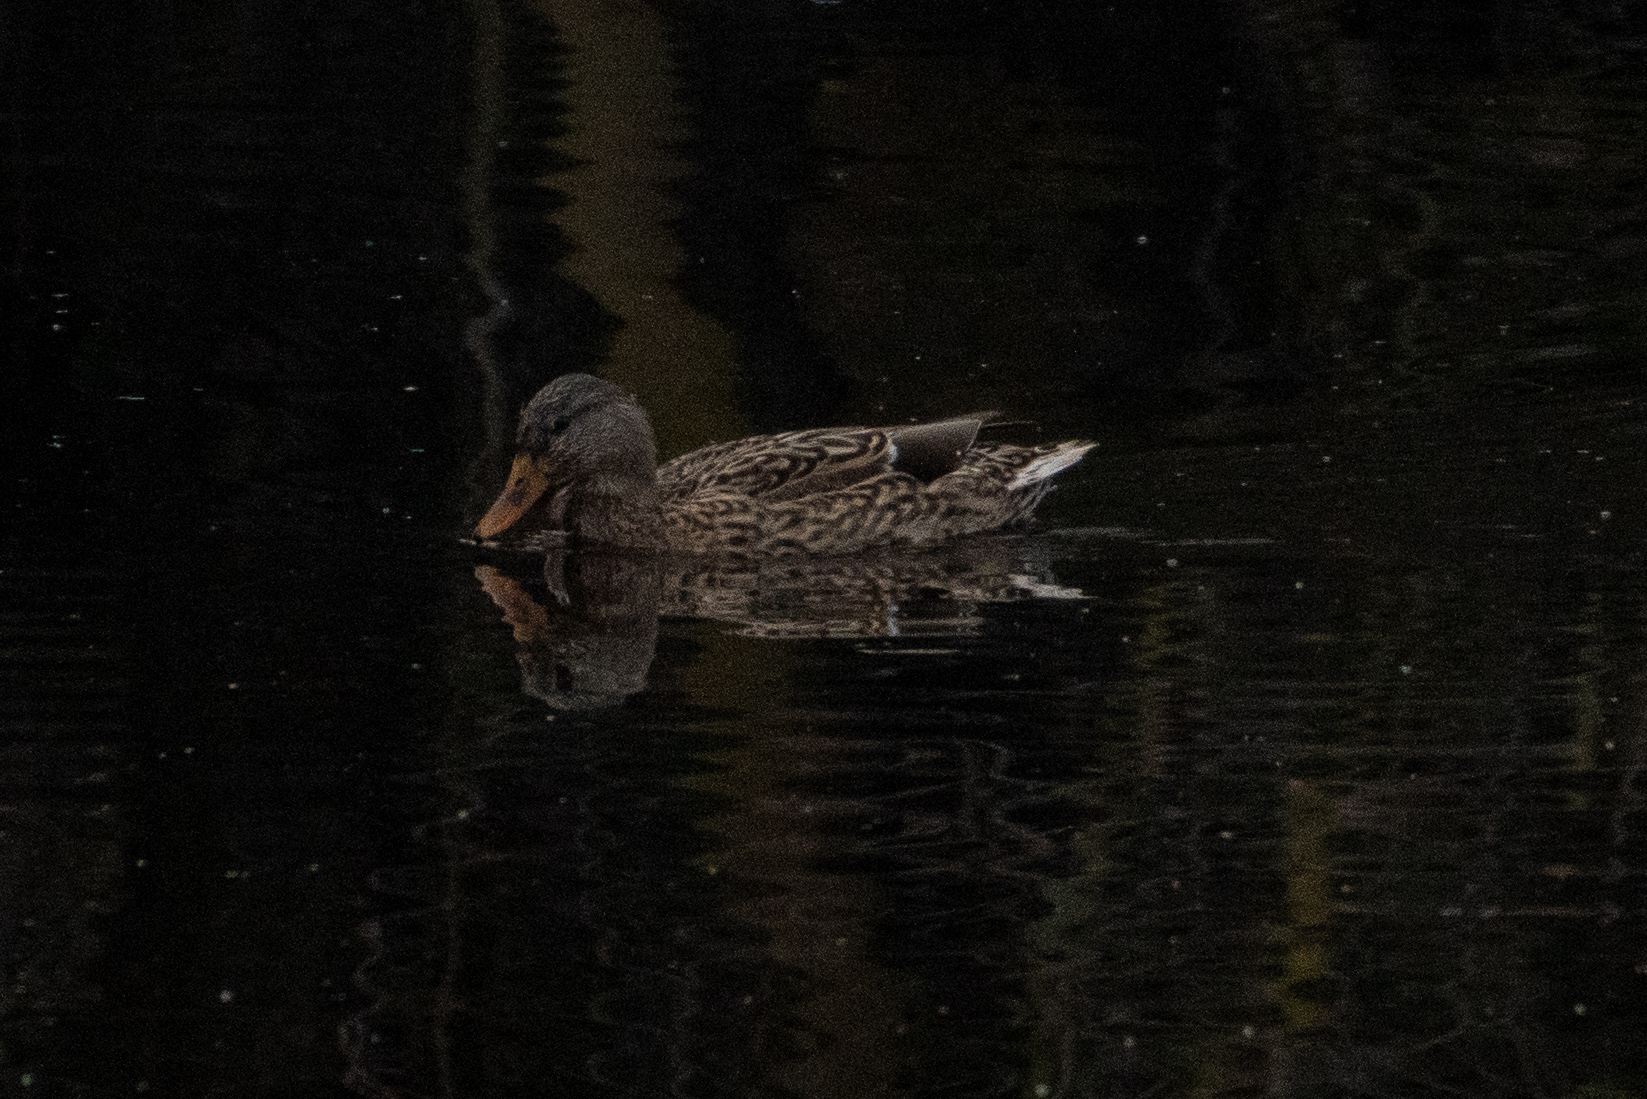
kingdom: Animalia
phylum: Chordata
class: Aves
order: Anseriformes
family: Anatidae
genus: Anas
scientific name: Anas platyrhynchos
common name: Mallard
